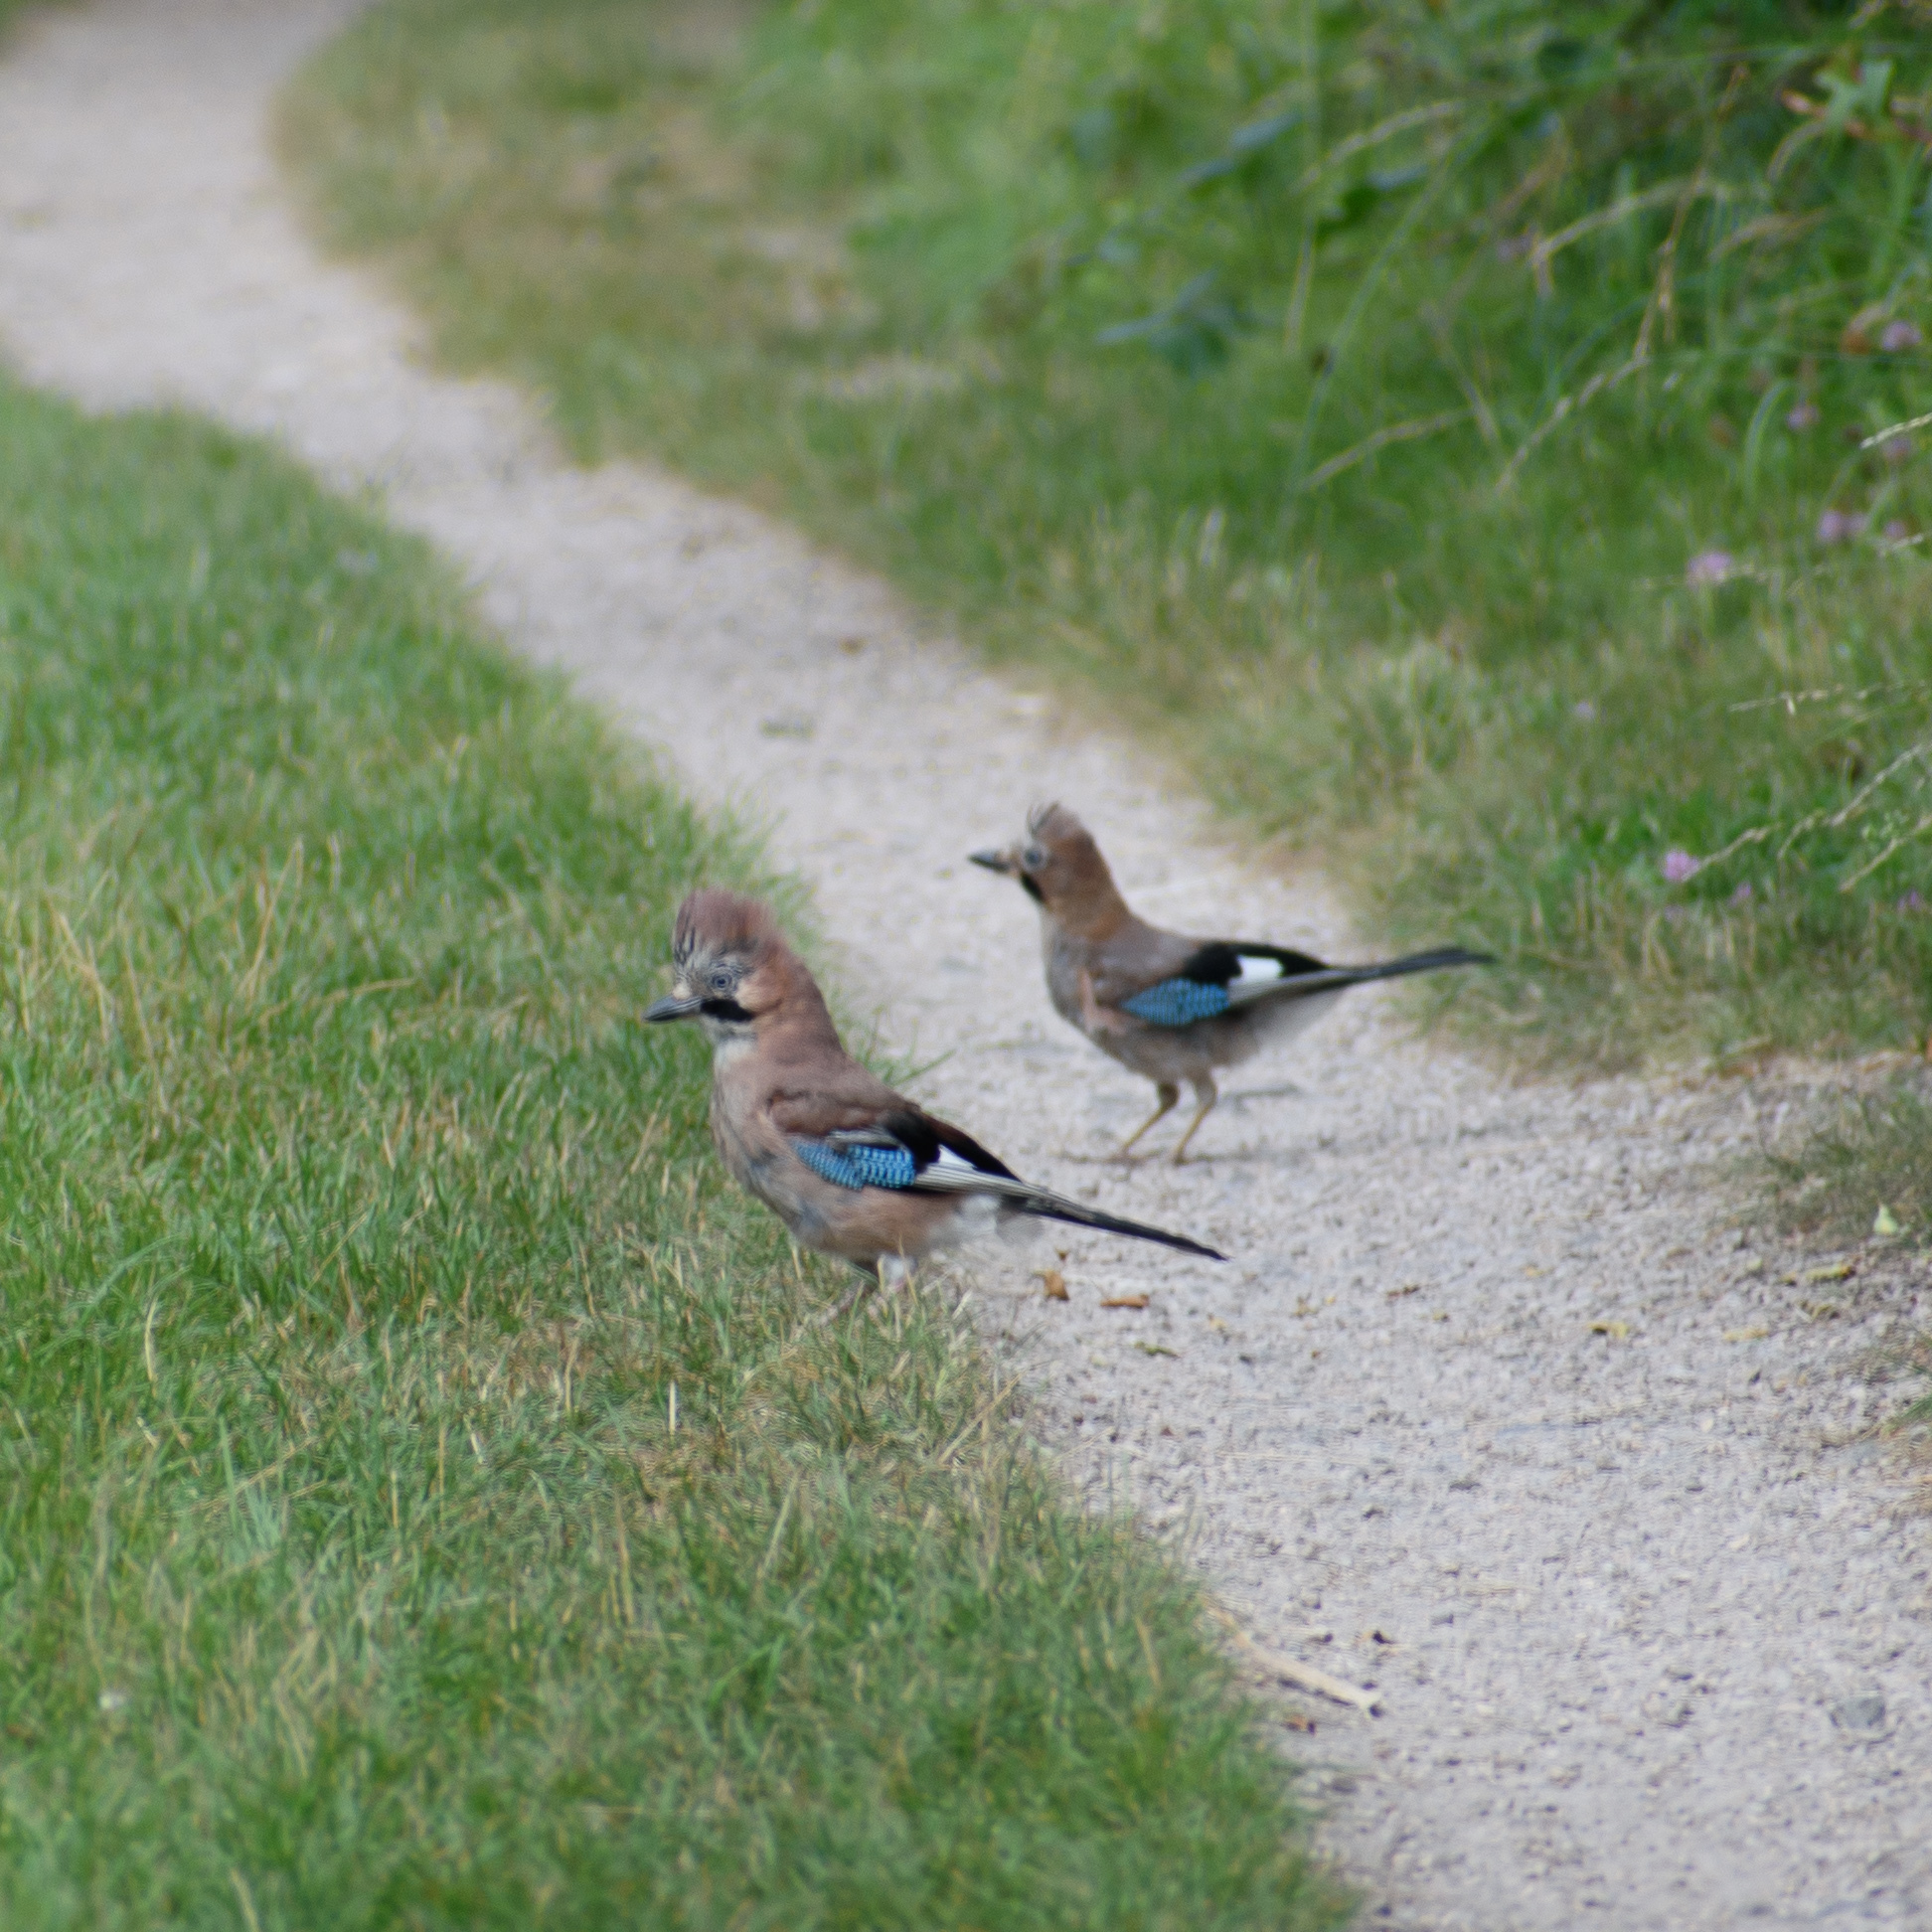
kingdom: Animalia
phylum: Chordata
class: Aves
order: Passeriformes
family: Corvidae
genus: Garrulus
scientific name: Garrulus glandarius
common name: Eurasian jay
